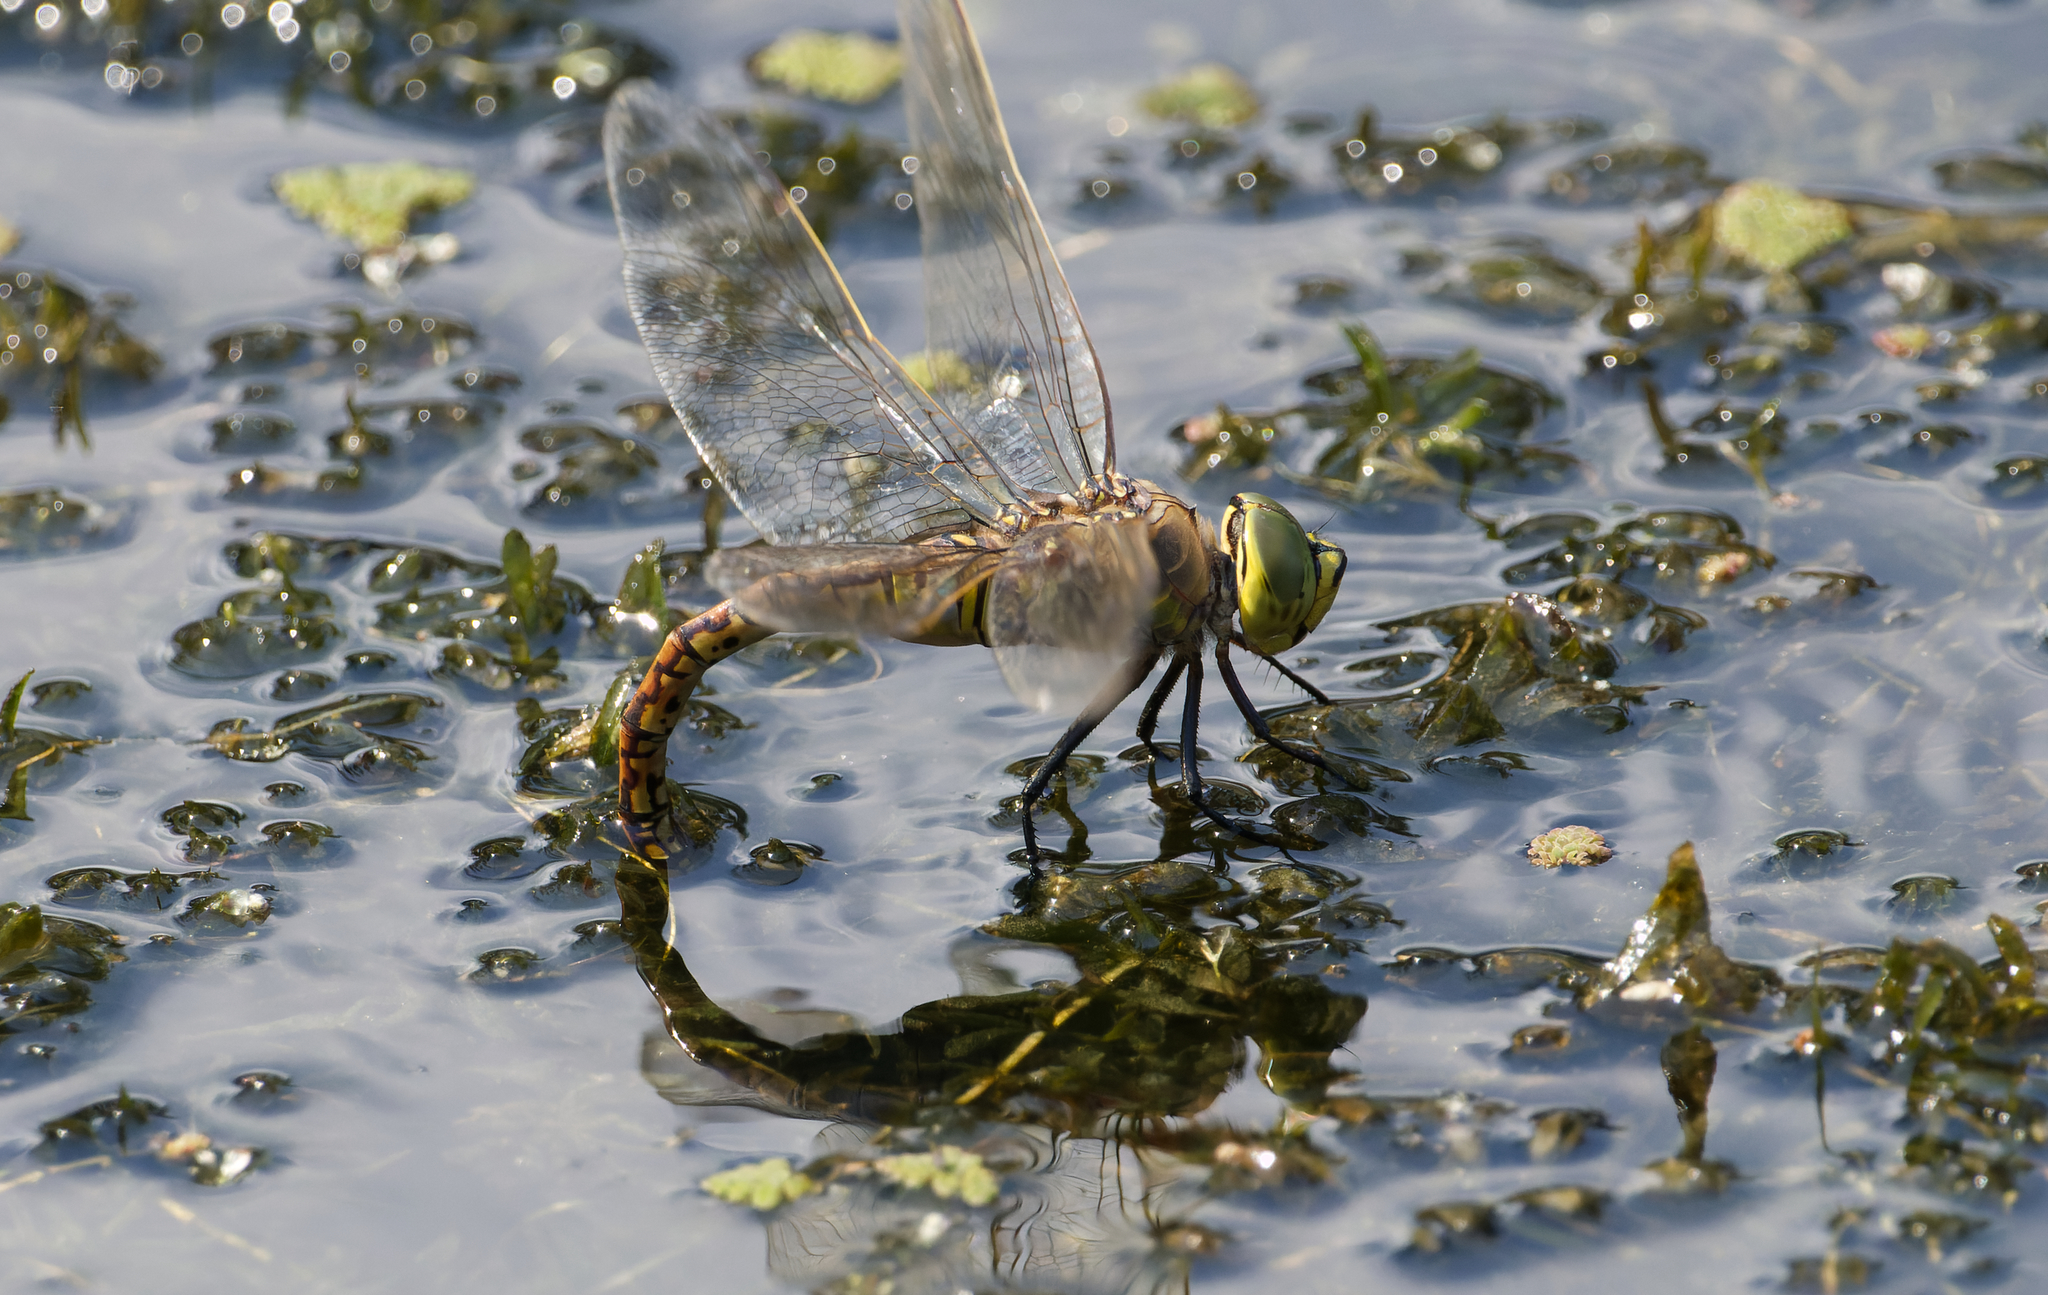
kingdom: Animalia
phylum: Arthropoda
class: Insecta
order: Odonata
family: Aeshnidae
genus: Anax
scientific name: Anax papuensis
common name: Australian emperor
